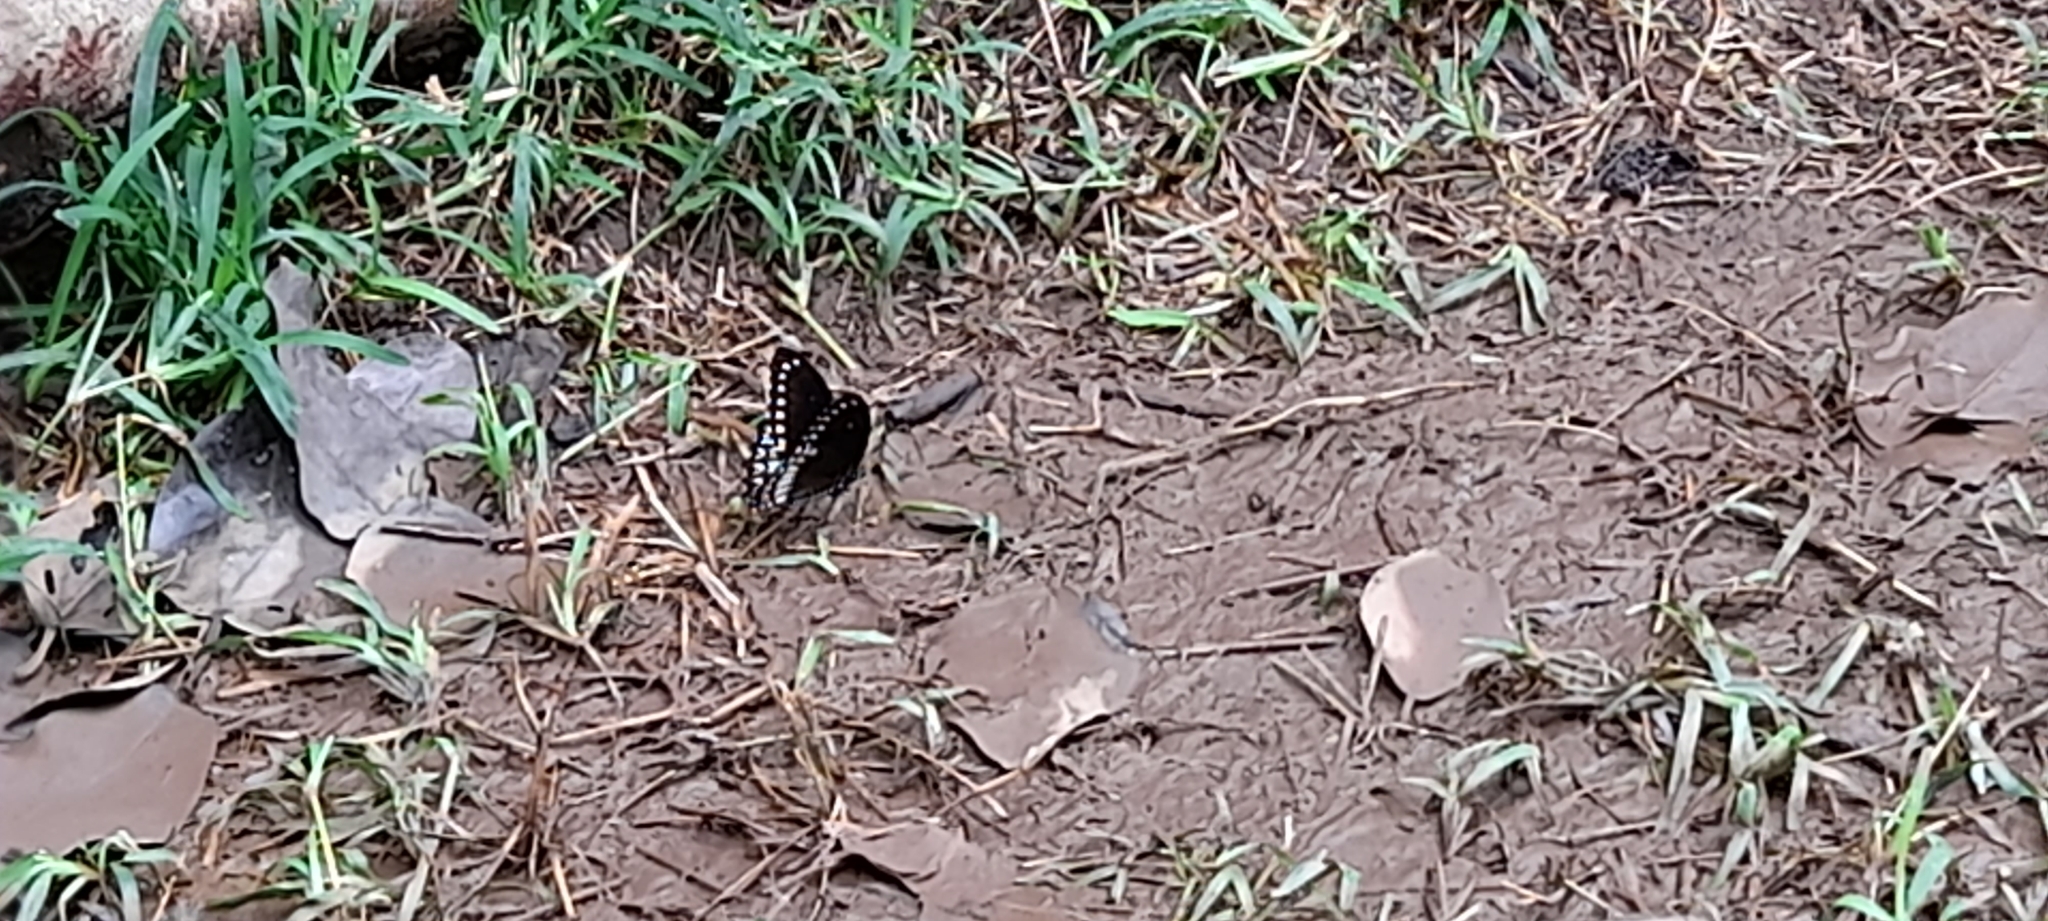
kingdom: Animalia
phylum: Arthropoda
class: Insecta
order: Lepidoptera
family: Papilionidae
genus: Papilio
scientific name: Papilio dravidarum
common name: Malabar raven
